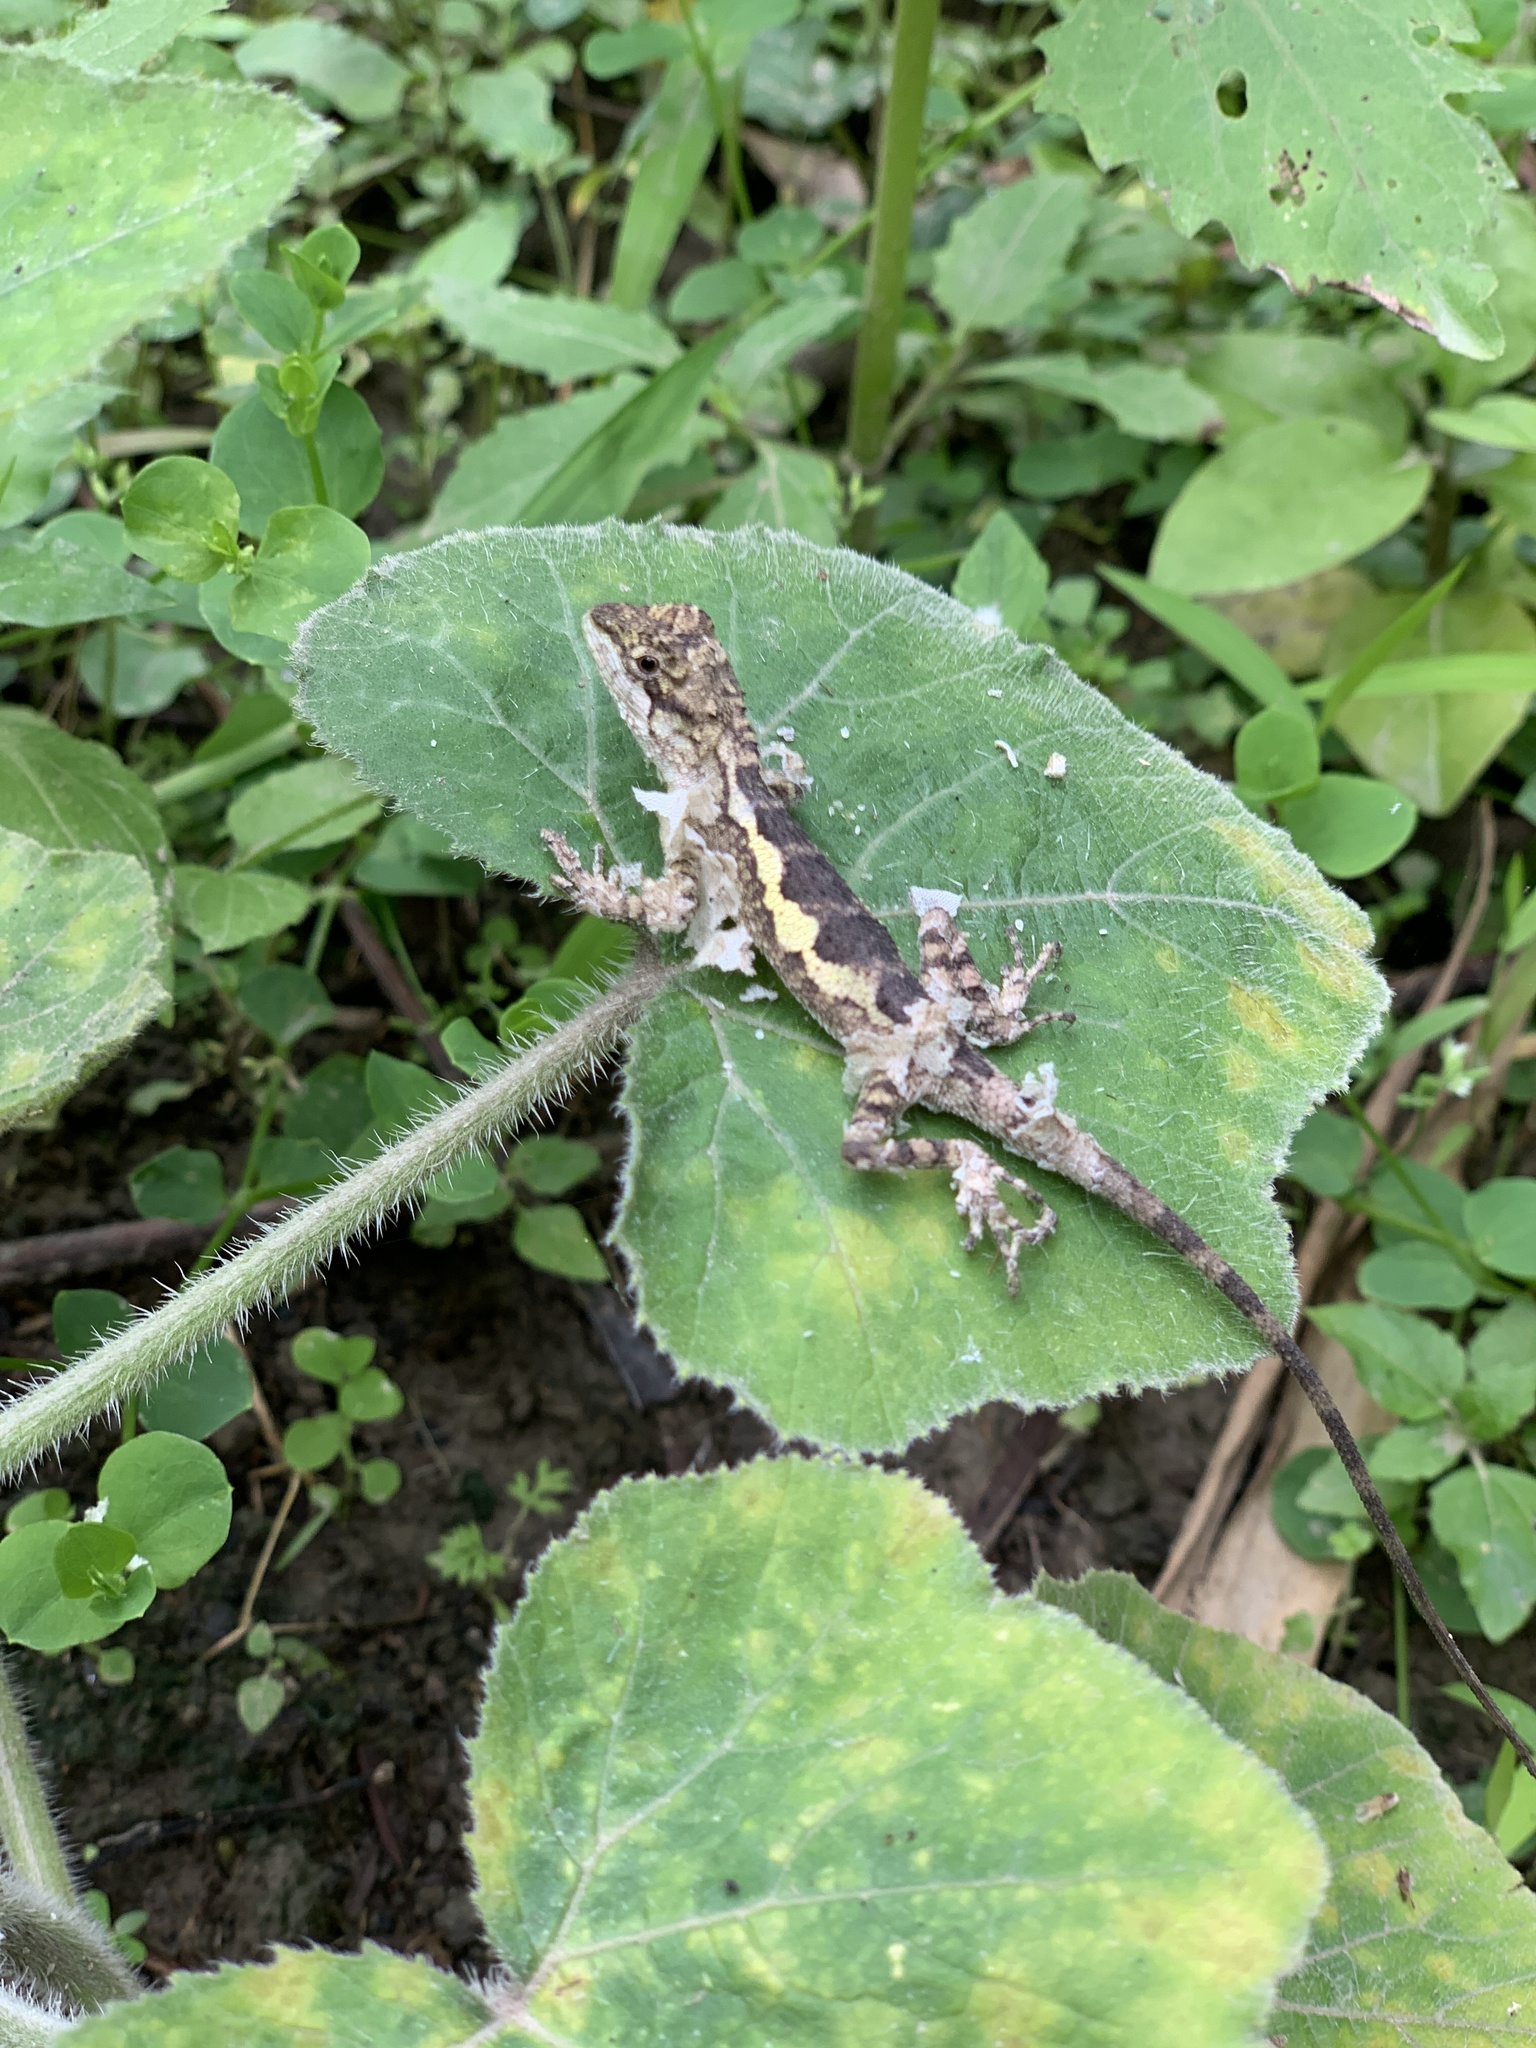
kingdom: Animalia
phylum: Chordata
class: Squamata
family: Agamidae
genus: Diploderma
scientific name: Diploderma swinhonis
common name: Taiwan japalure
